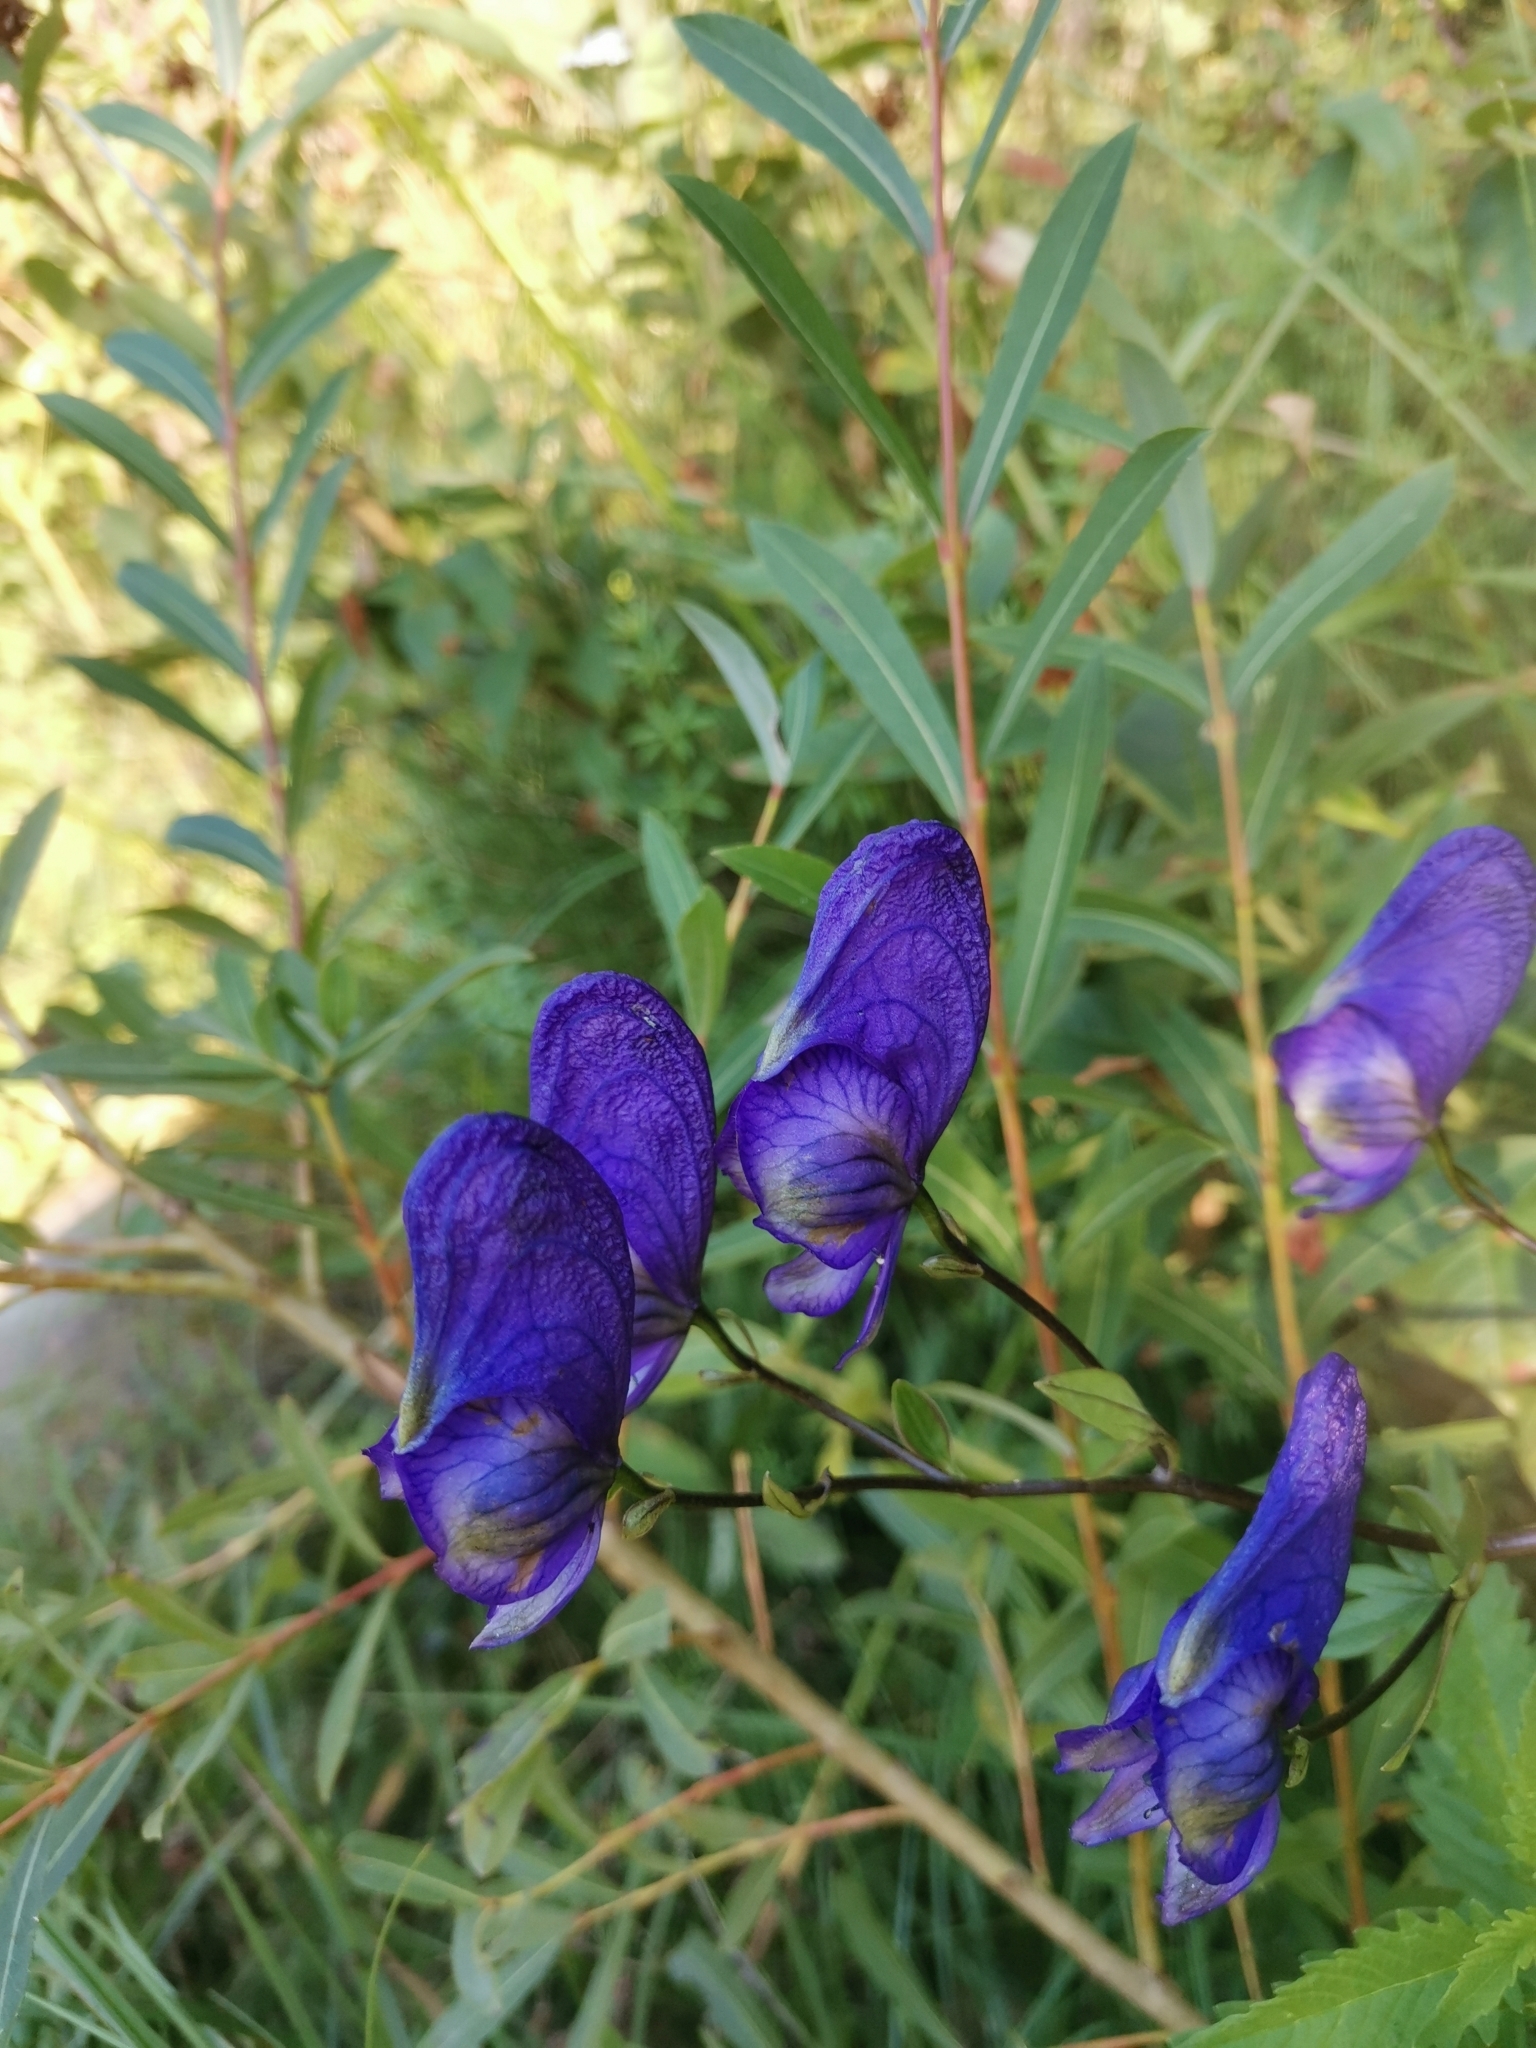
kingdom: Plantae
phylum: Tracheophyta
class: Magnoliopsida
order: Ranunculales
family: Ranunculaceae
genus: Aconitum
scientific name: Aconitum variegatum
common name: Manchurian monkshood
